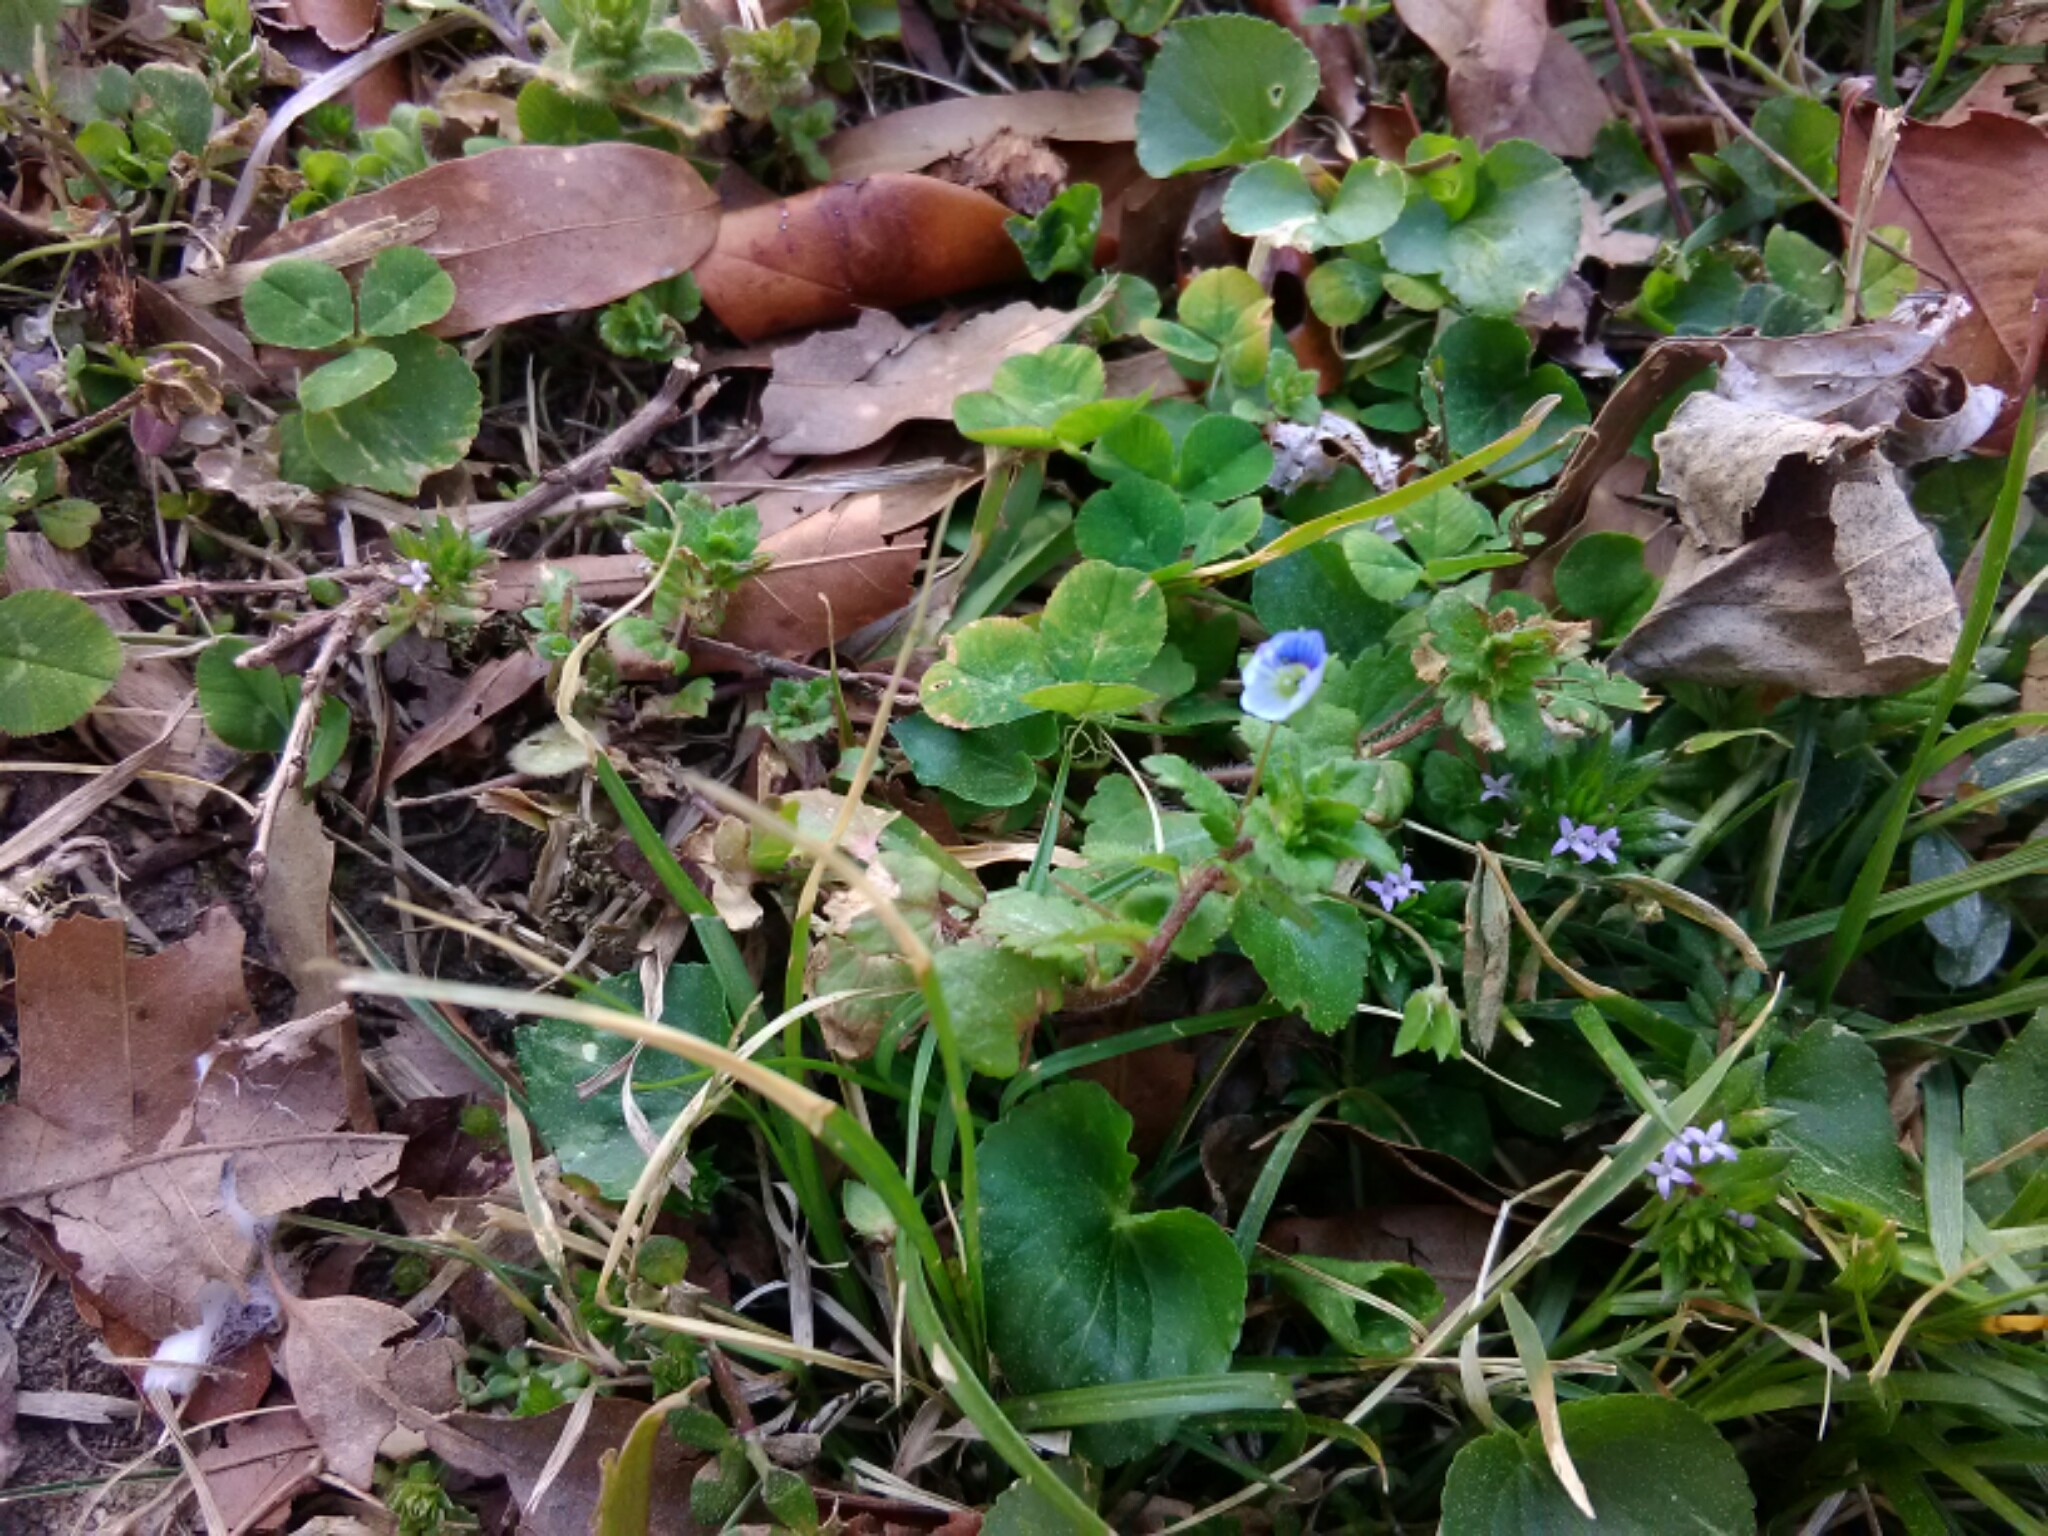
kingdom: Plantae
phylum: Tracheophyta
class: Magnoliopsida
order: Lamiales
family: Plantaginaceae
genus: Veronica
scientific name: Veronica persica
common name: Common field-speedwell
